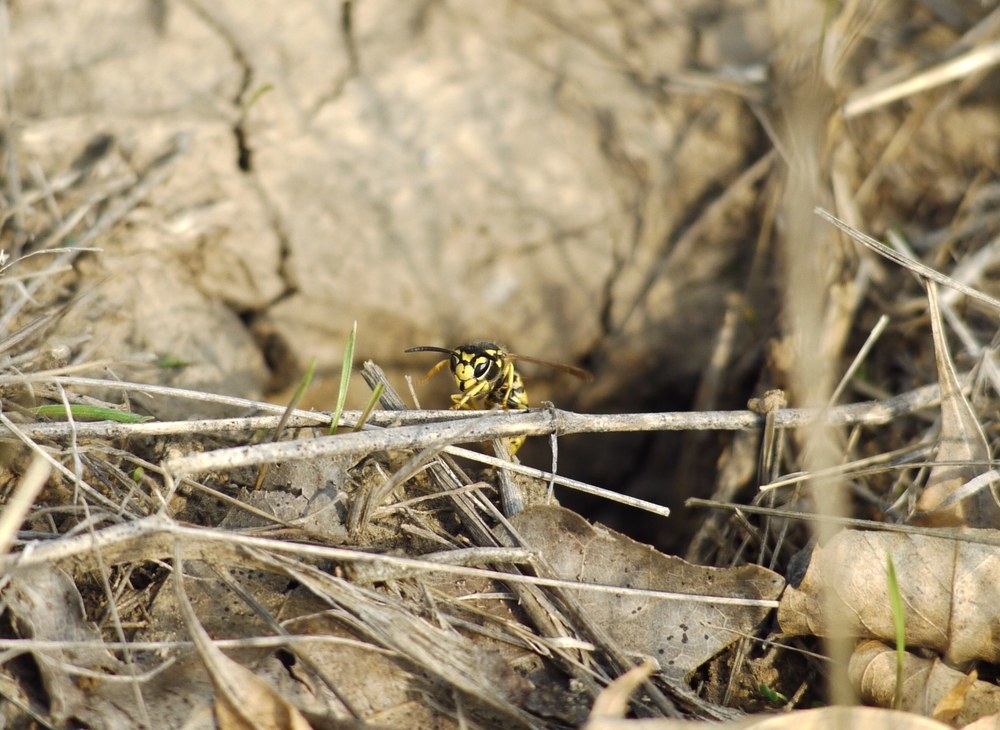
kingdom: Animalia
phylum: Arthropoda
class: Insecta
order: Hymenoptera
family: Vespidae
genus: Vespula
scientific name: Vespula germanica
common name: German wasp
